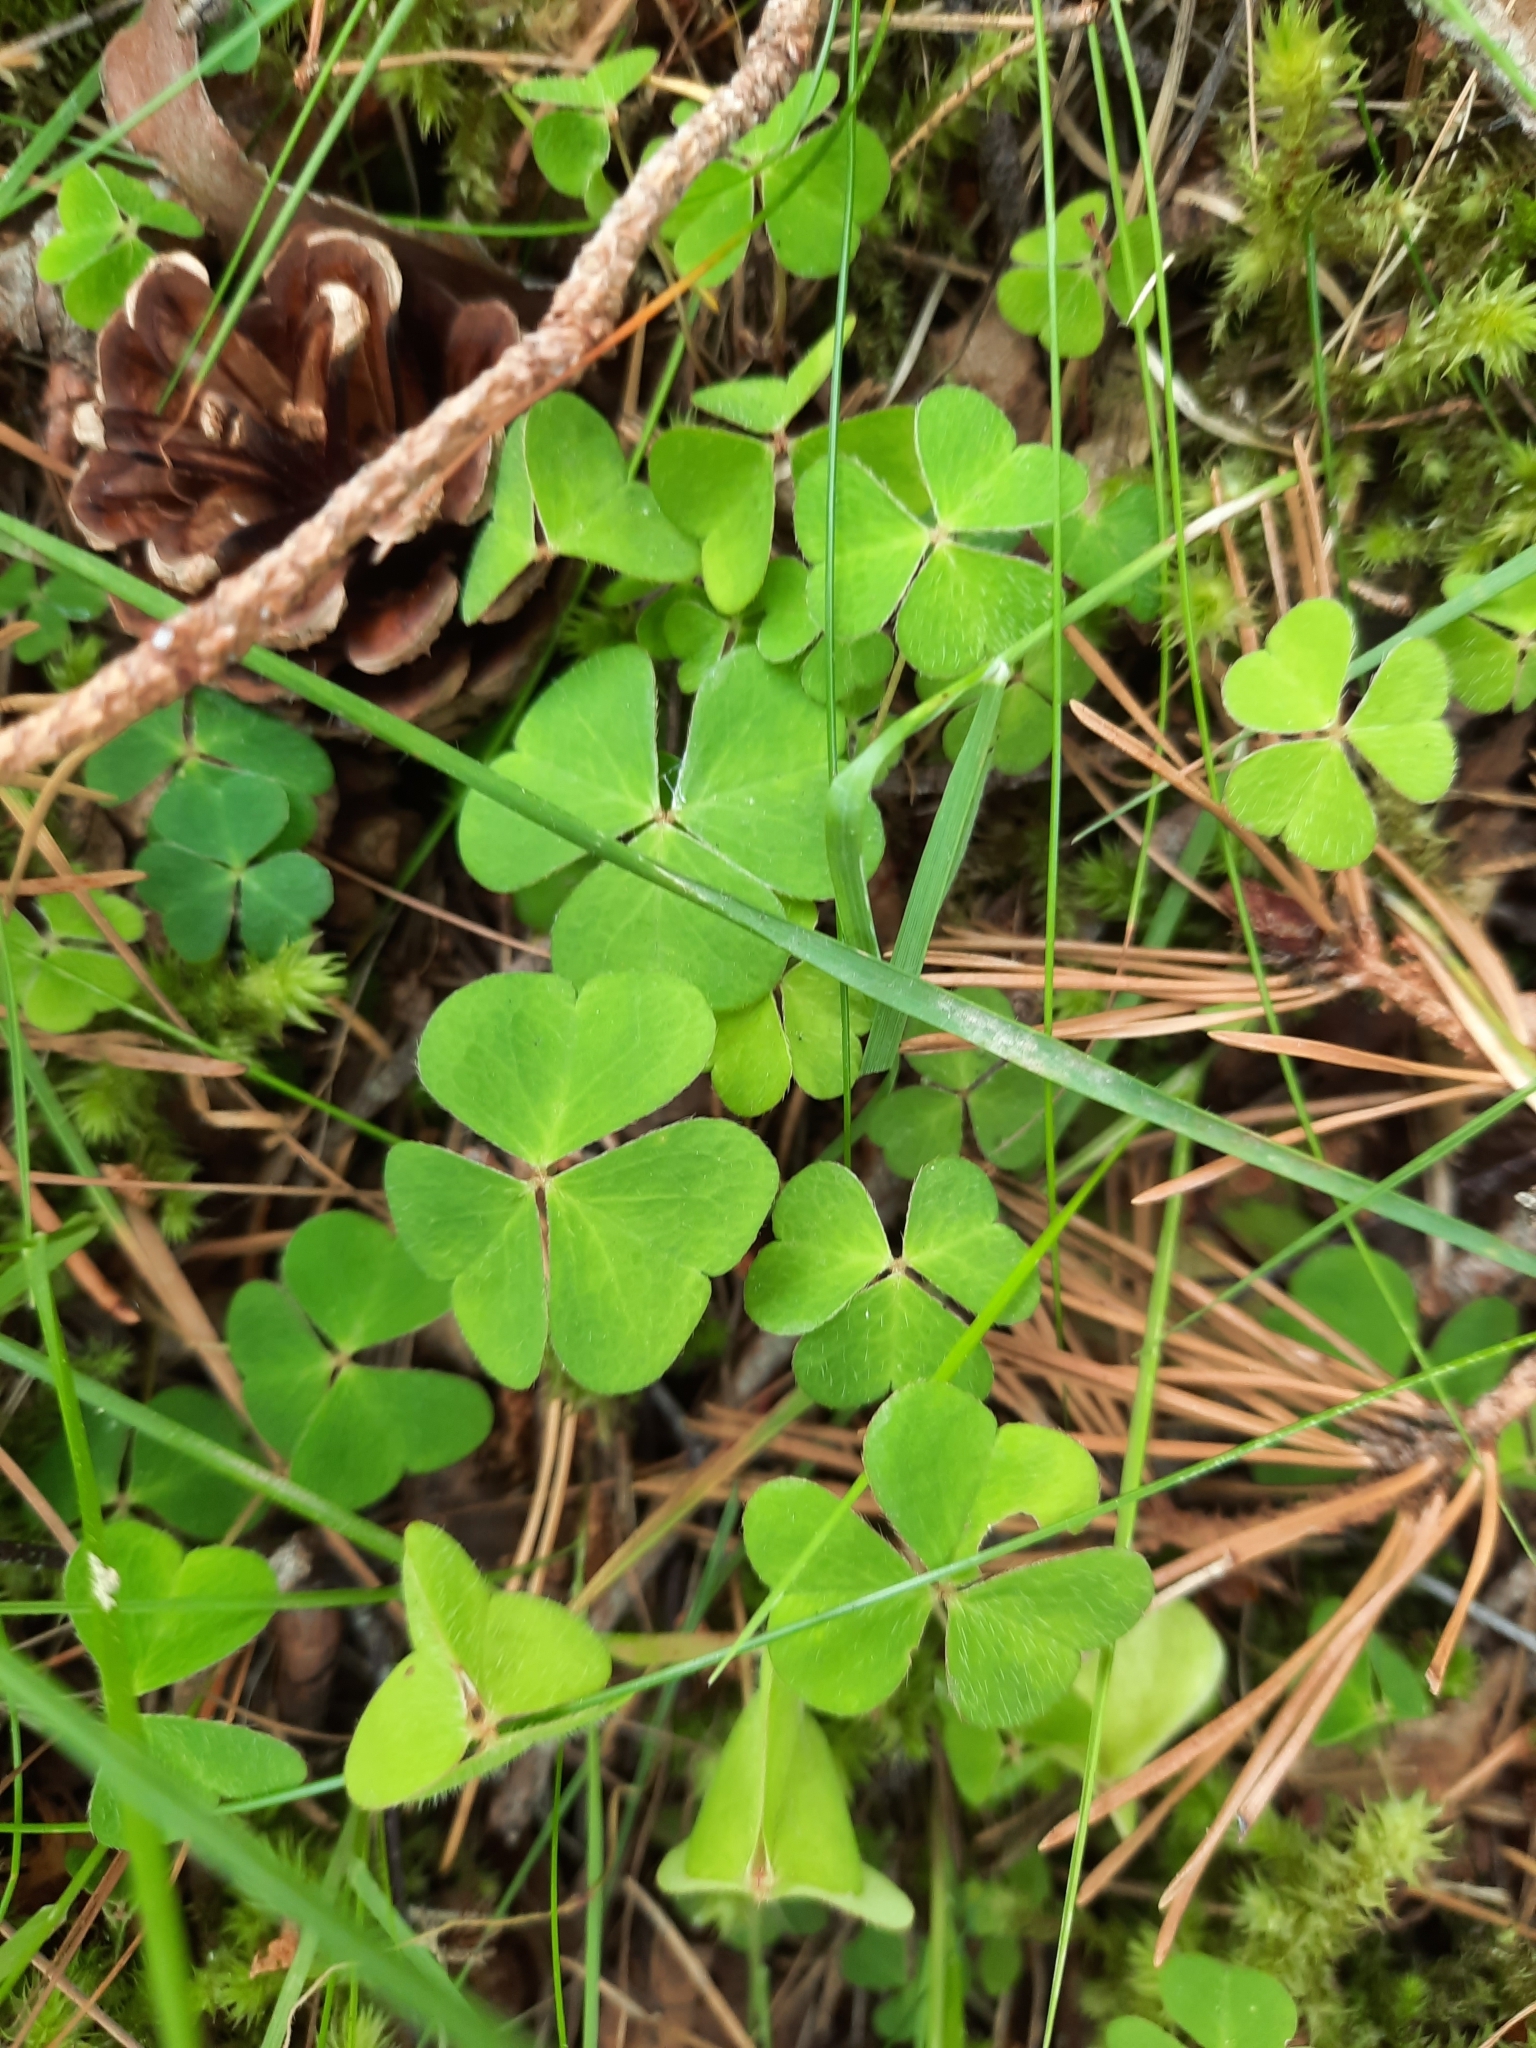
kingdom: Plantae
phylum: Tracheophyta
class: Magnoliopsida
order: Oxalidales
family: Oxalidaceae
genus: Oxalis
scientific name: Oxalis acetosella
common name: Wood-sorrel
